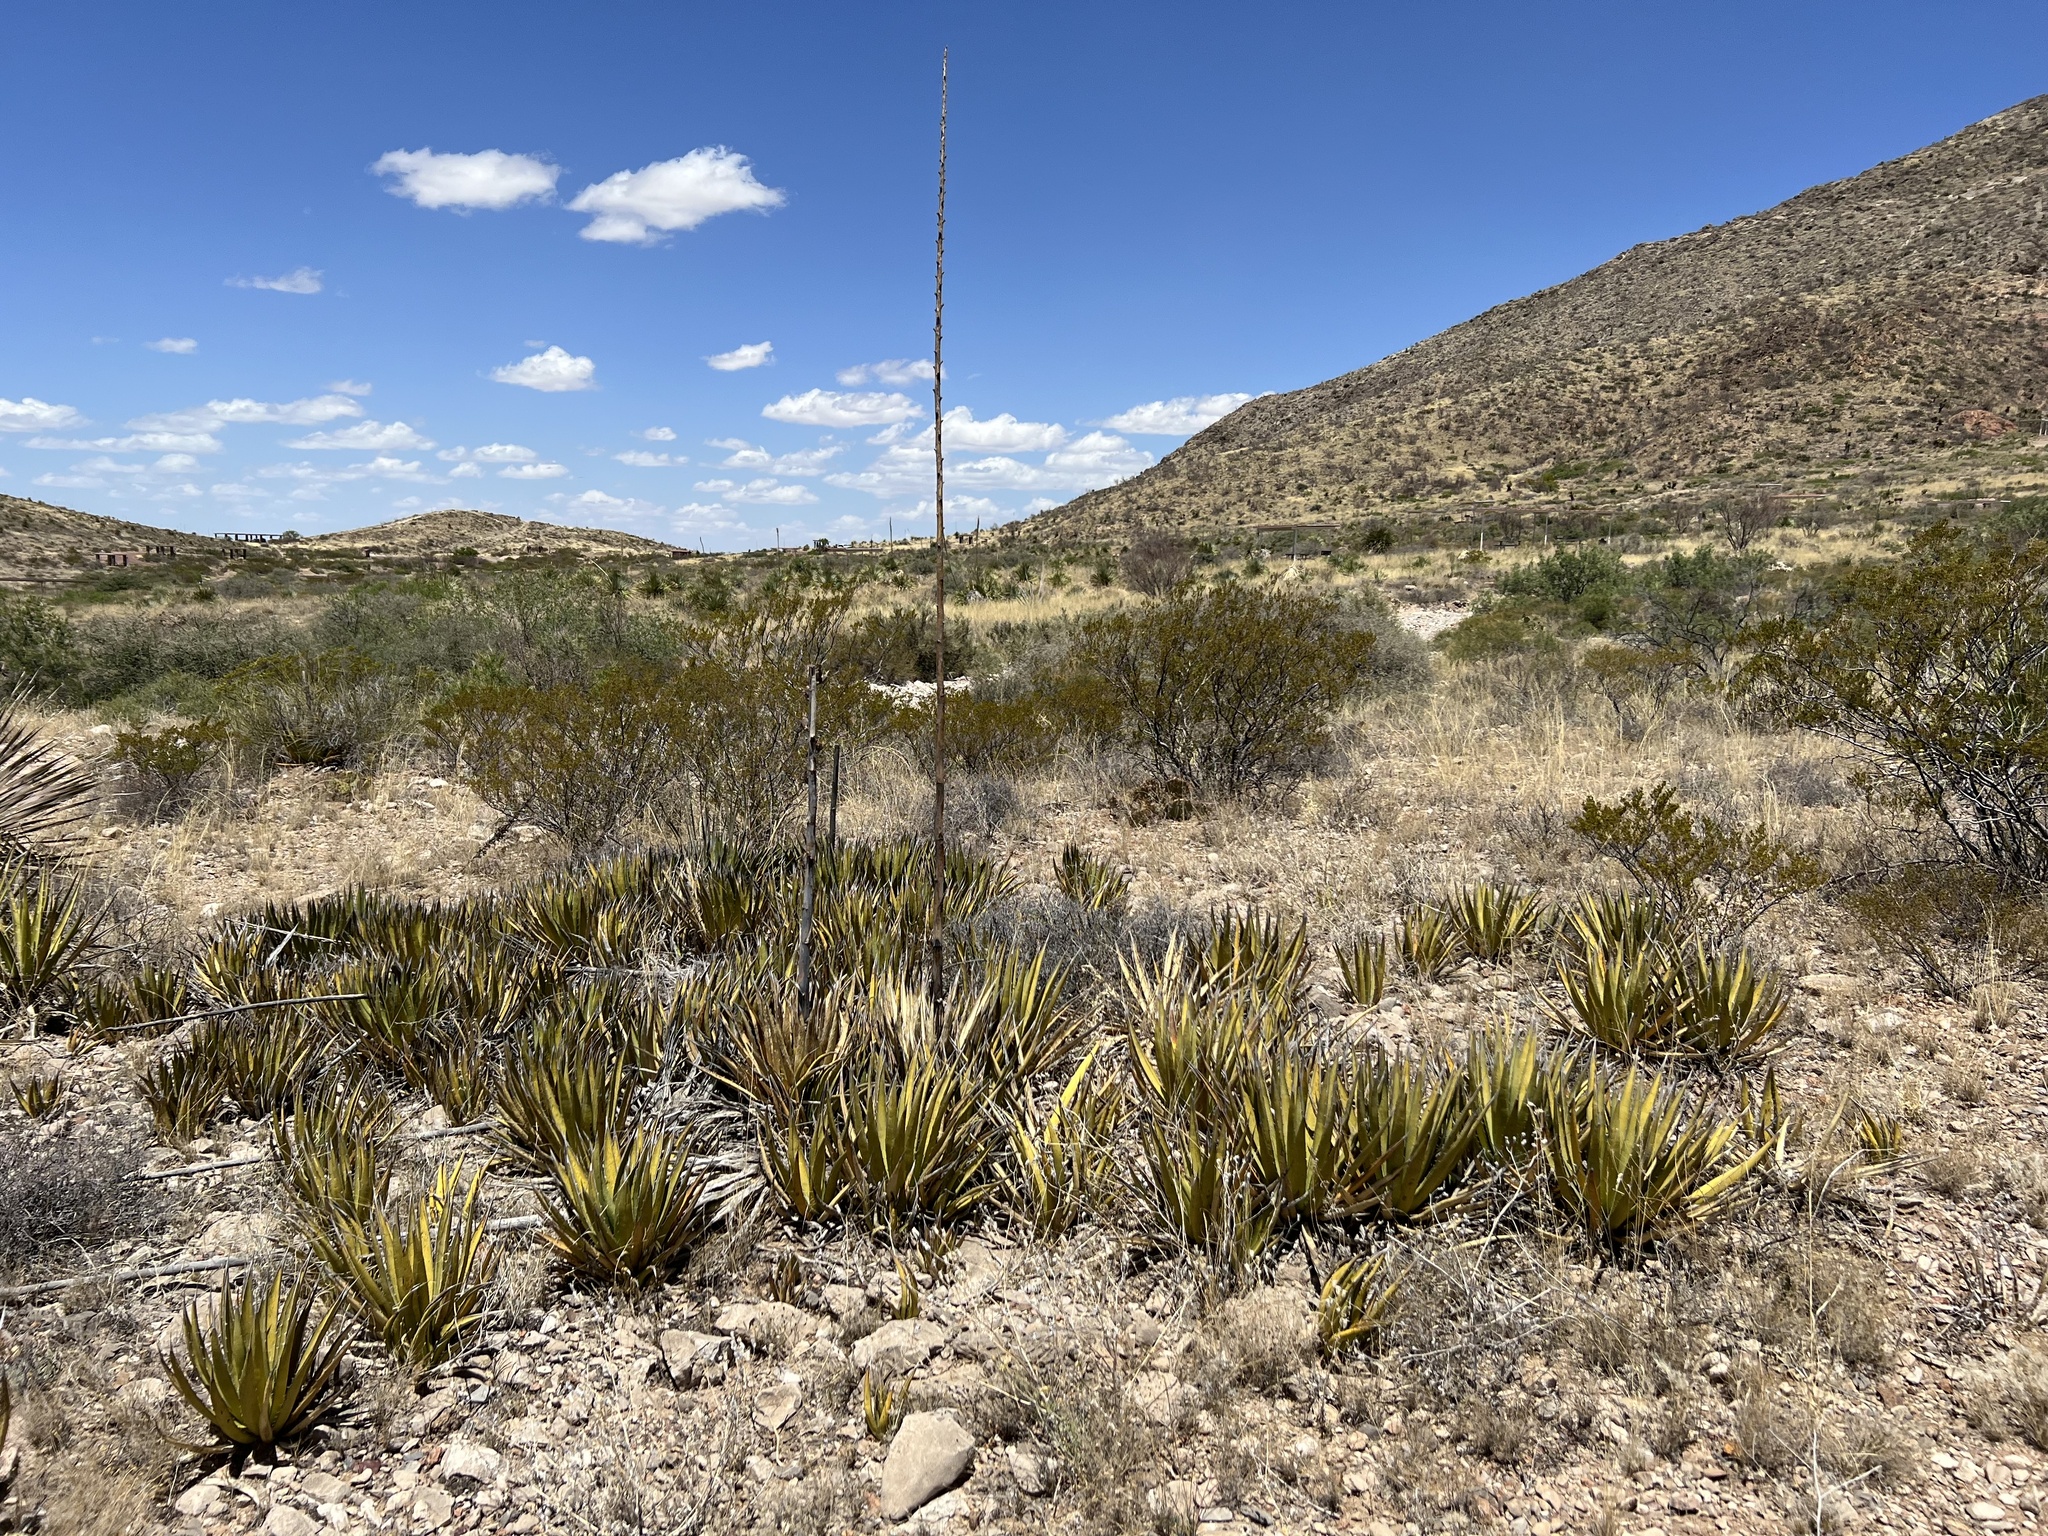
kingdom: Plantae
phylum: Tracheophyta
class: Liliopsida
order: Asparagales
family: Asparagaceae
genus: Agave
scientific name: Agave lechuguilla
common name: Lecheguilla agave
